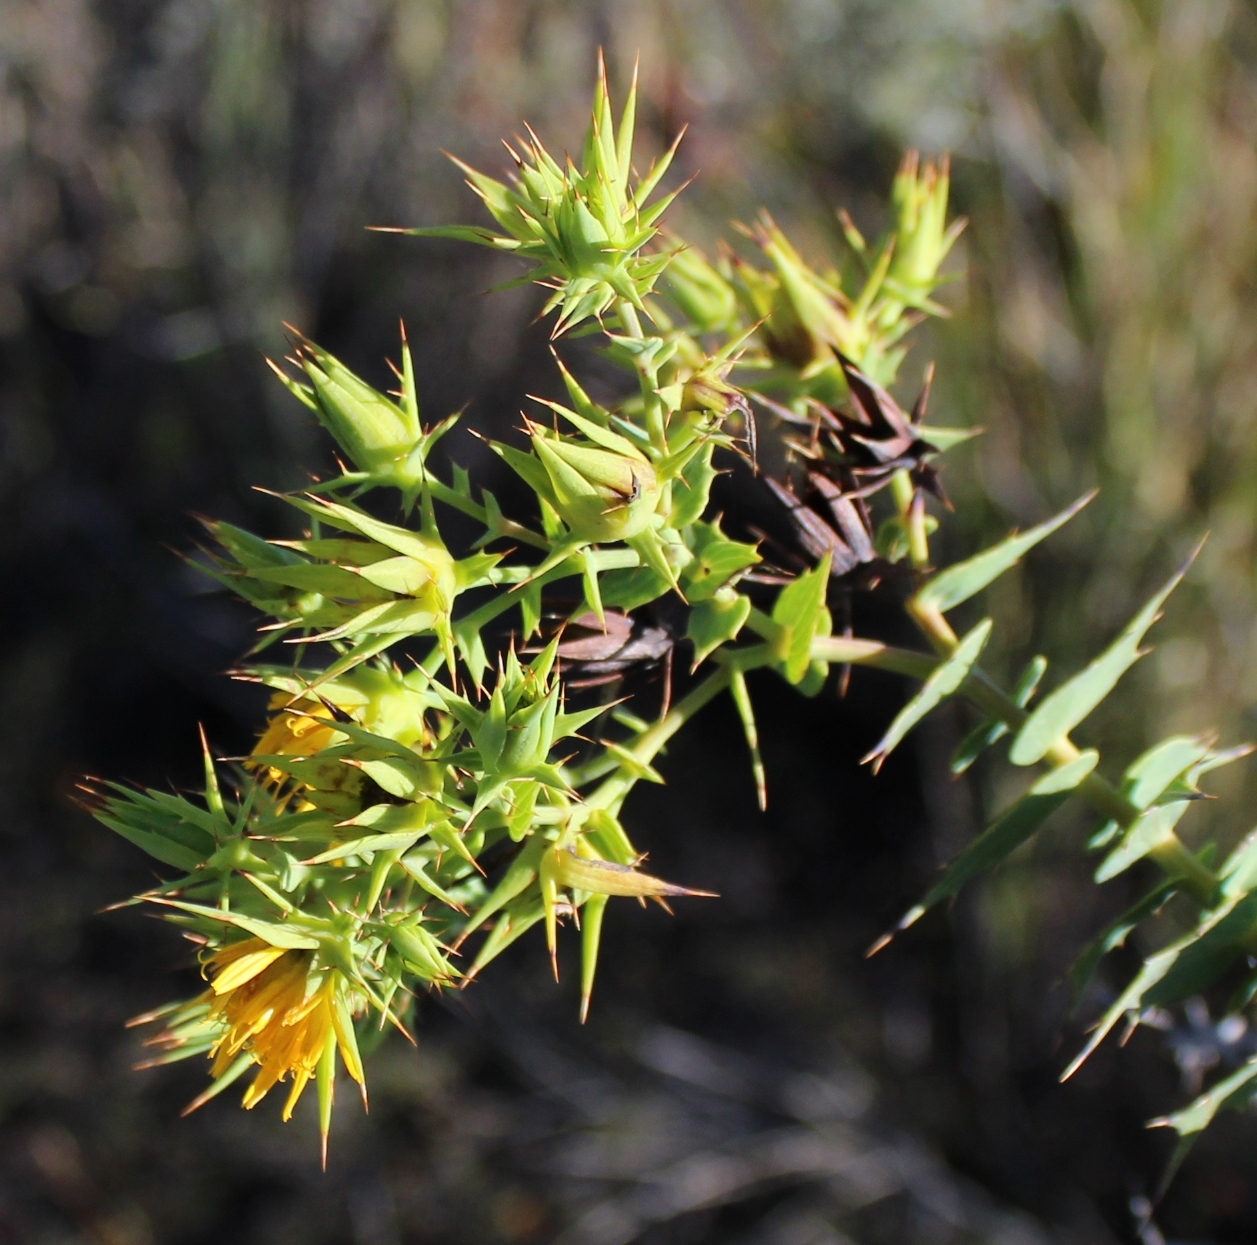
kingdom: Plantae
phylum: Tracheophyta
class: Magnoliopsida
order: Asterales
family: Asteraceae
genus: Berkheya
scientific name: Berkheya cruciata
